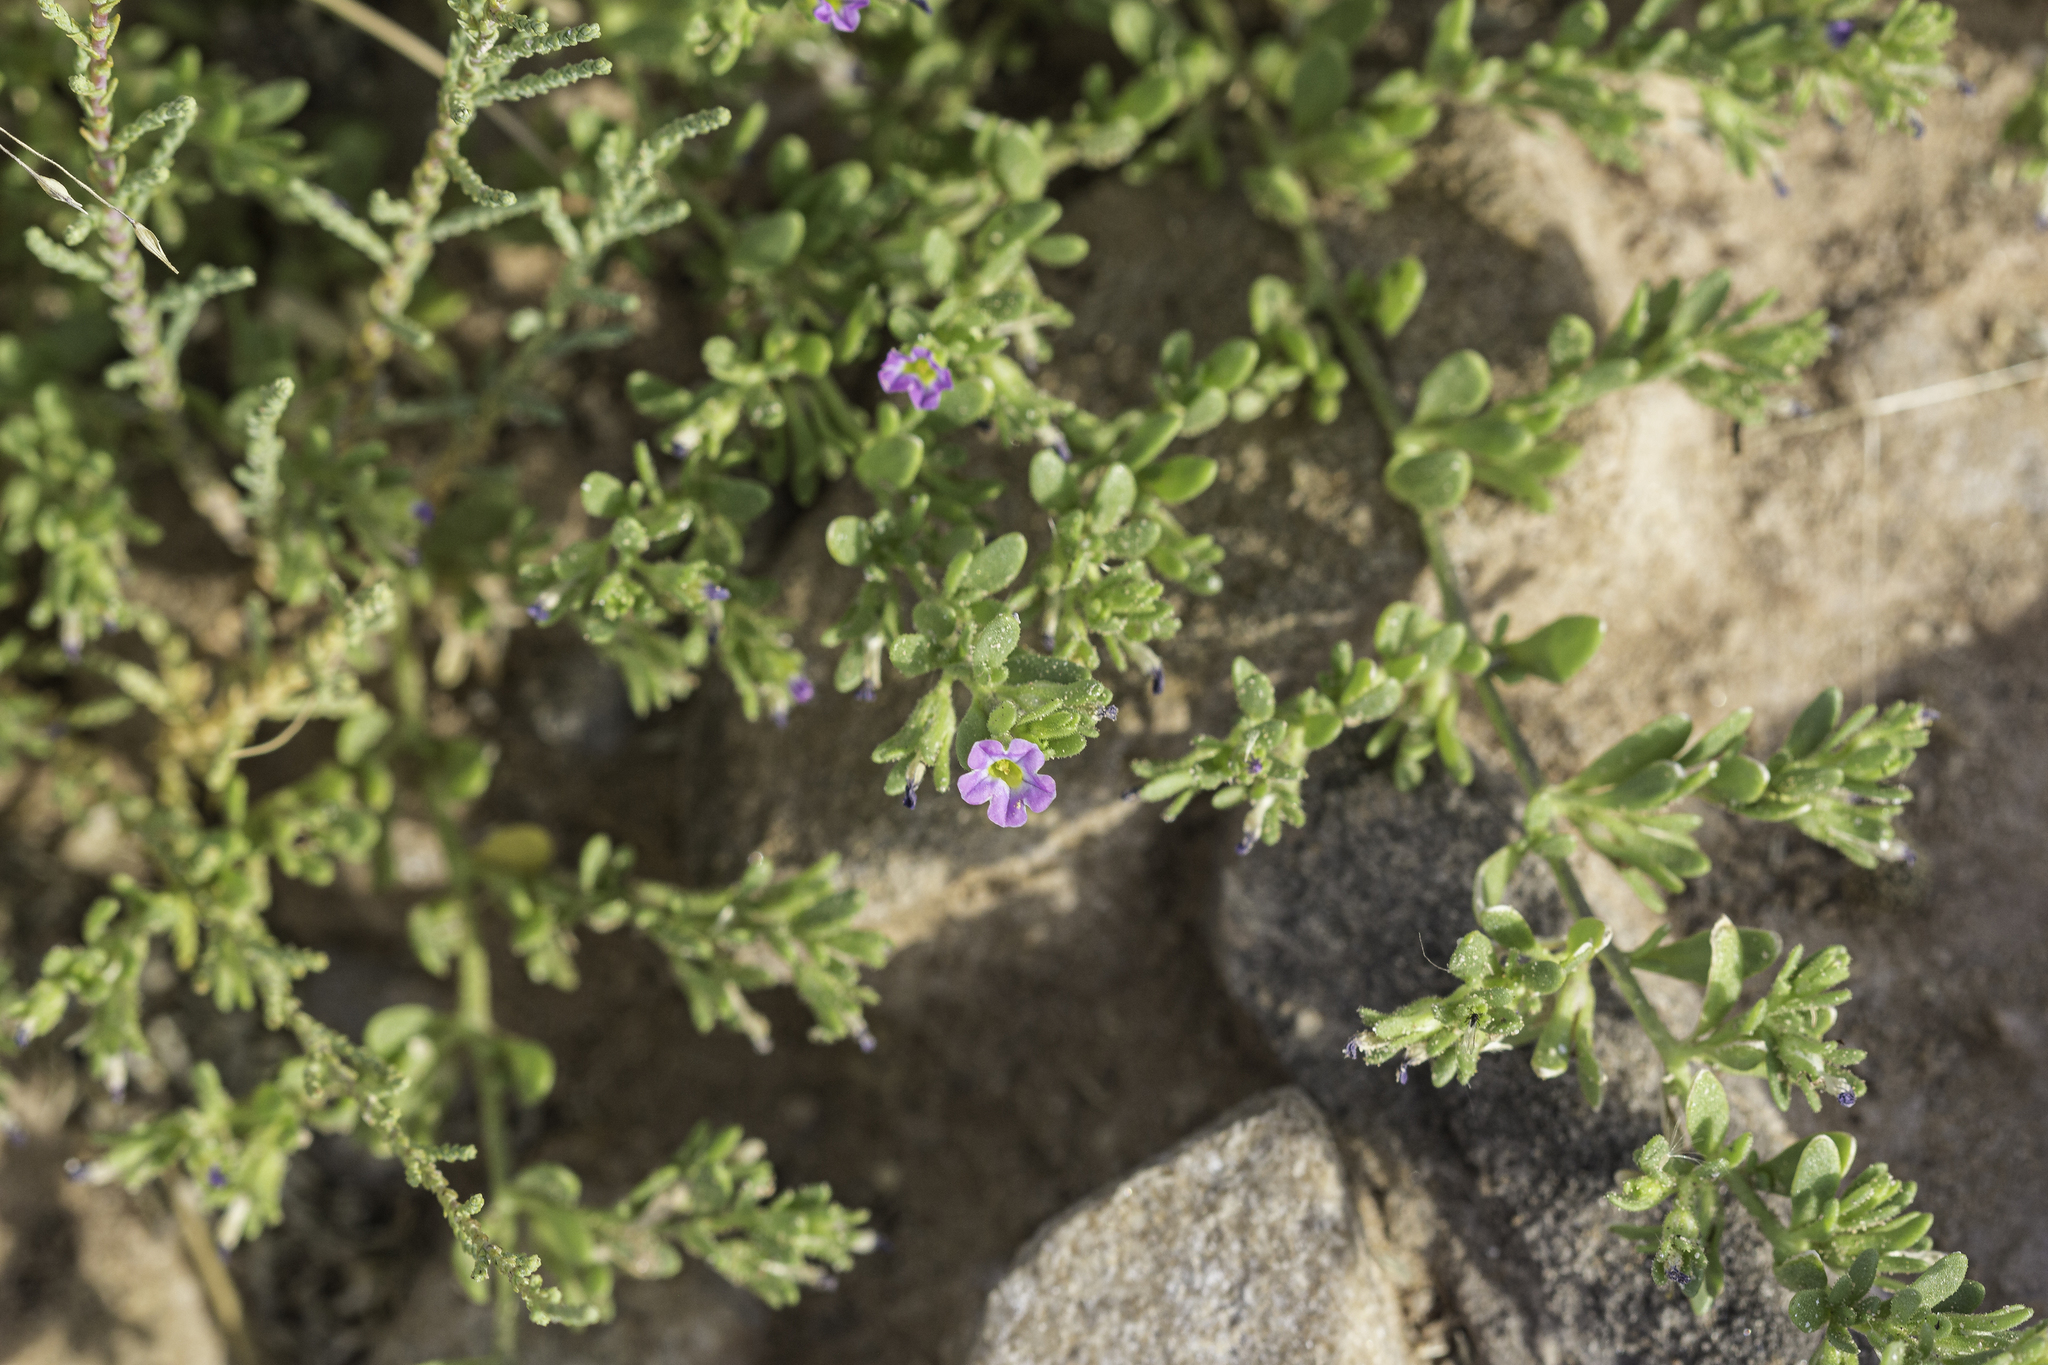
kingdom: Plantae
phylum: Tracheophyta
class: Magnoliopsida
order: Solanales
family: Solanaceae
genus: Calibrachoa
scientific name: Calibrachoa parviflora
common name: Seaside petunia
